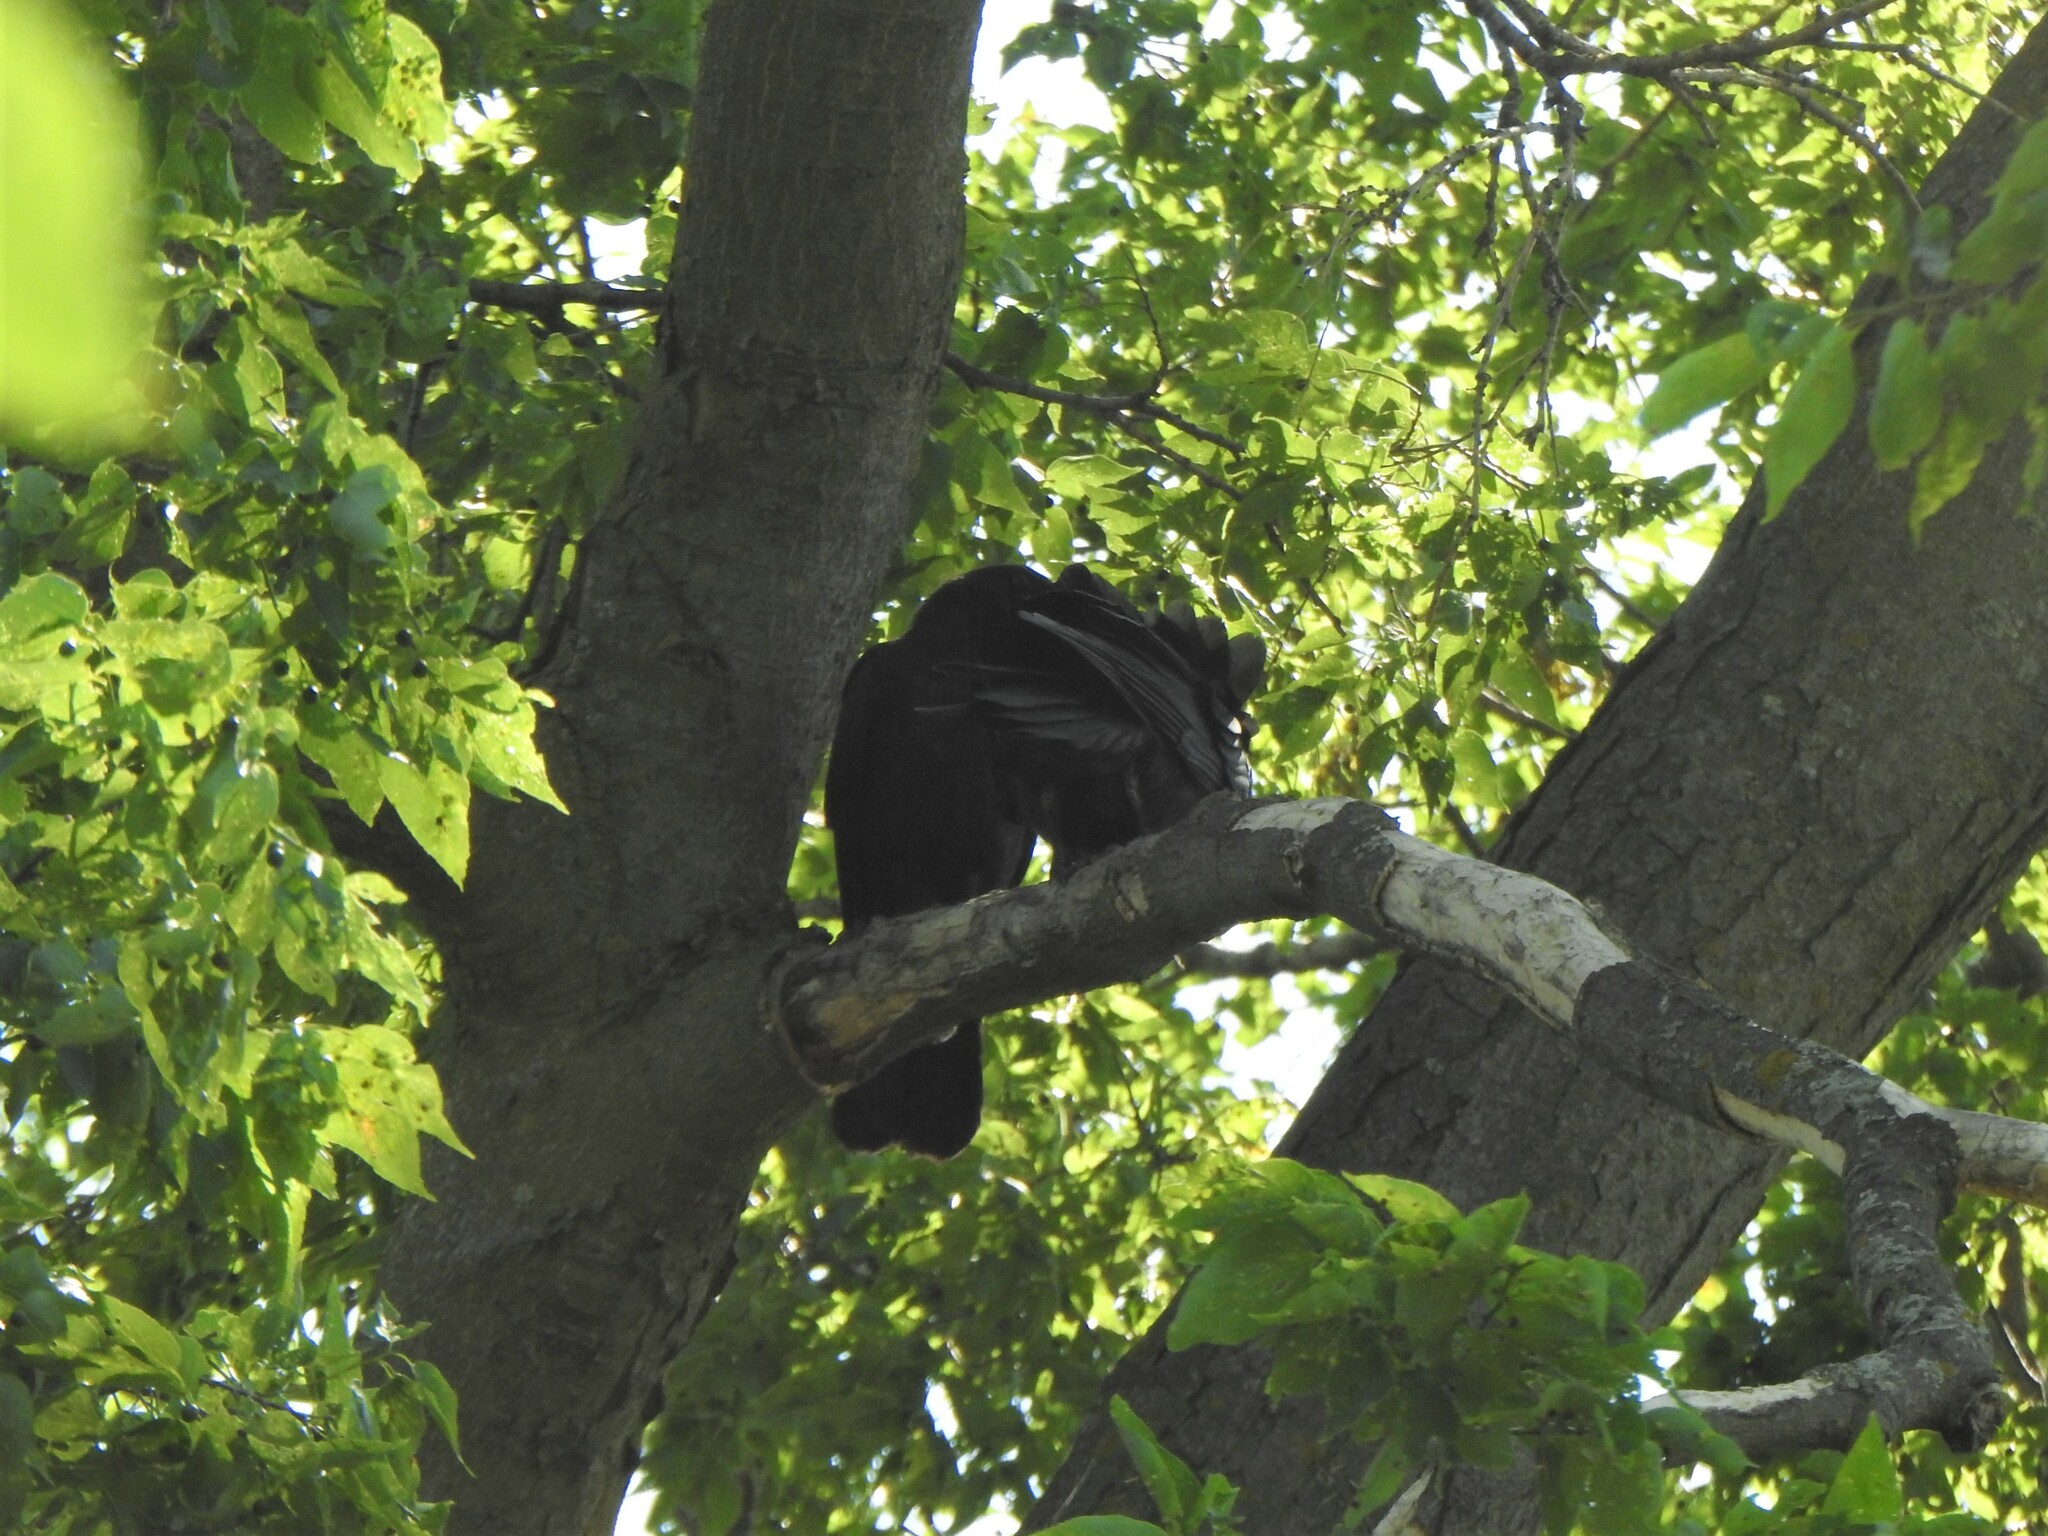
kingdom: Animalia
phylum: Chordata
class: Aves
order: Passeriformes
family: Corvidae
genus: Corvus
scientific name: Corvus brachyrhynchos
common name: American crow
